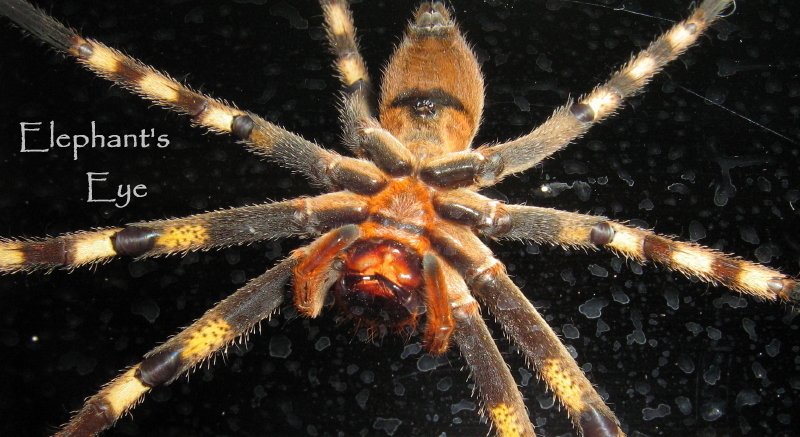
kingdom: Animalia
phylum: Arthropoda
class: Arachnida
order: Araneae
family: Sparassidae
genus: Palystes
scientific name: Palystes superciliosus
